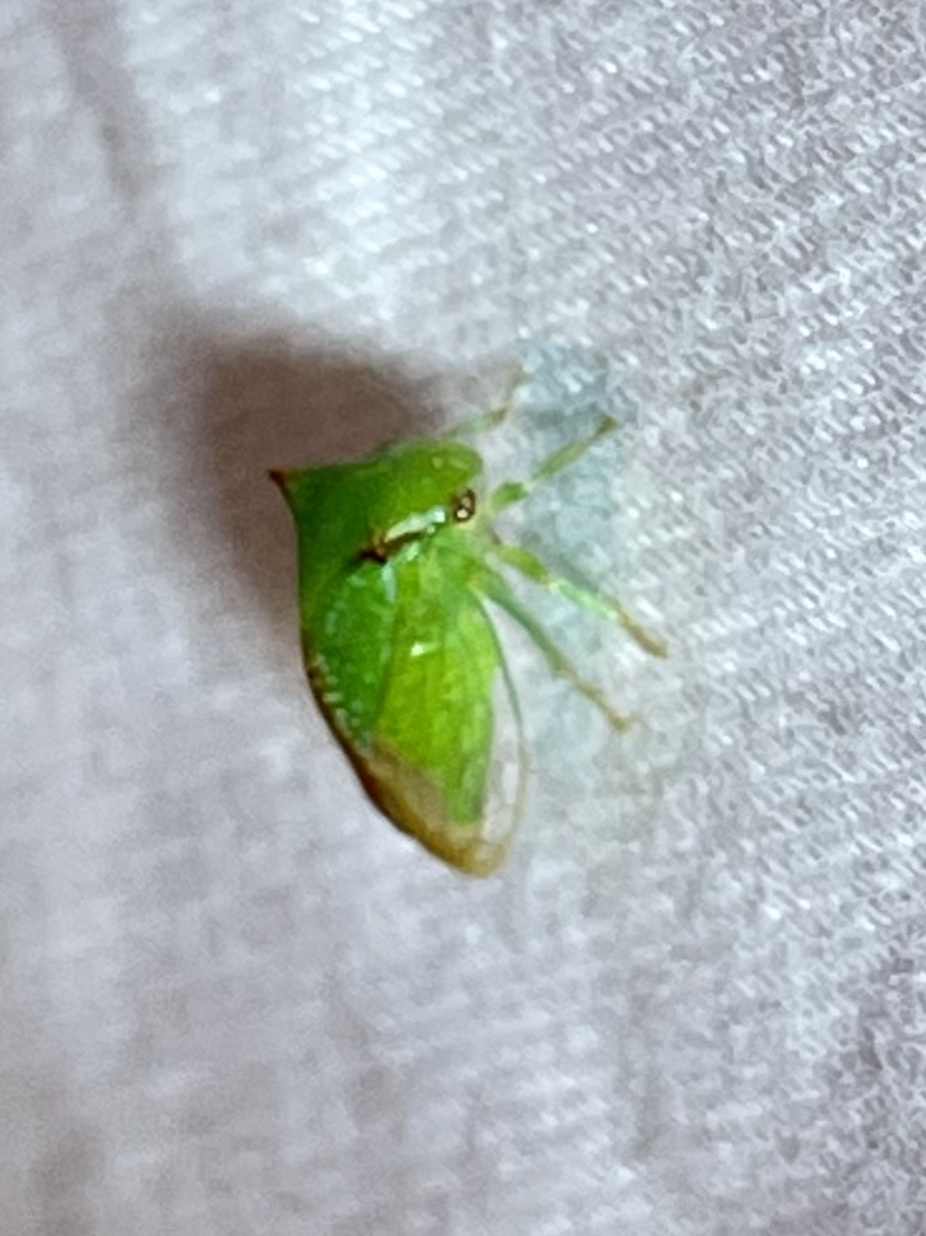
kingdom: Animalia
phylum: Arthropoda
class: Insecta
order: Hemiptera
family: Membracidae
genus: Stictocephala
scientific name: Stictocephala militaris
